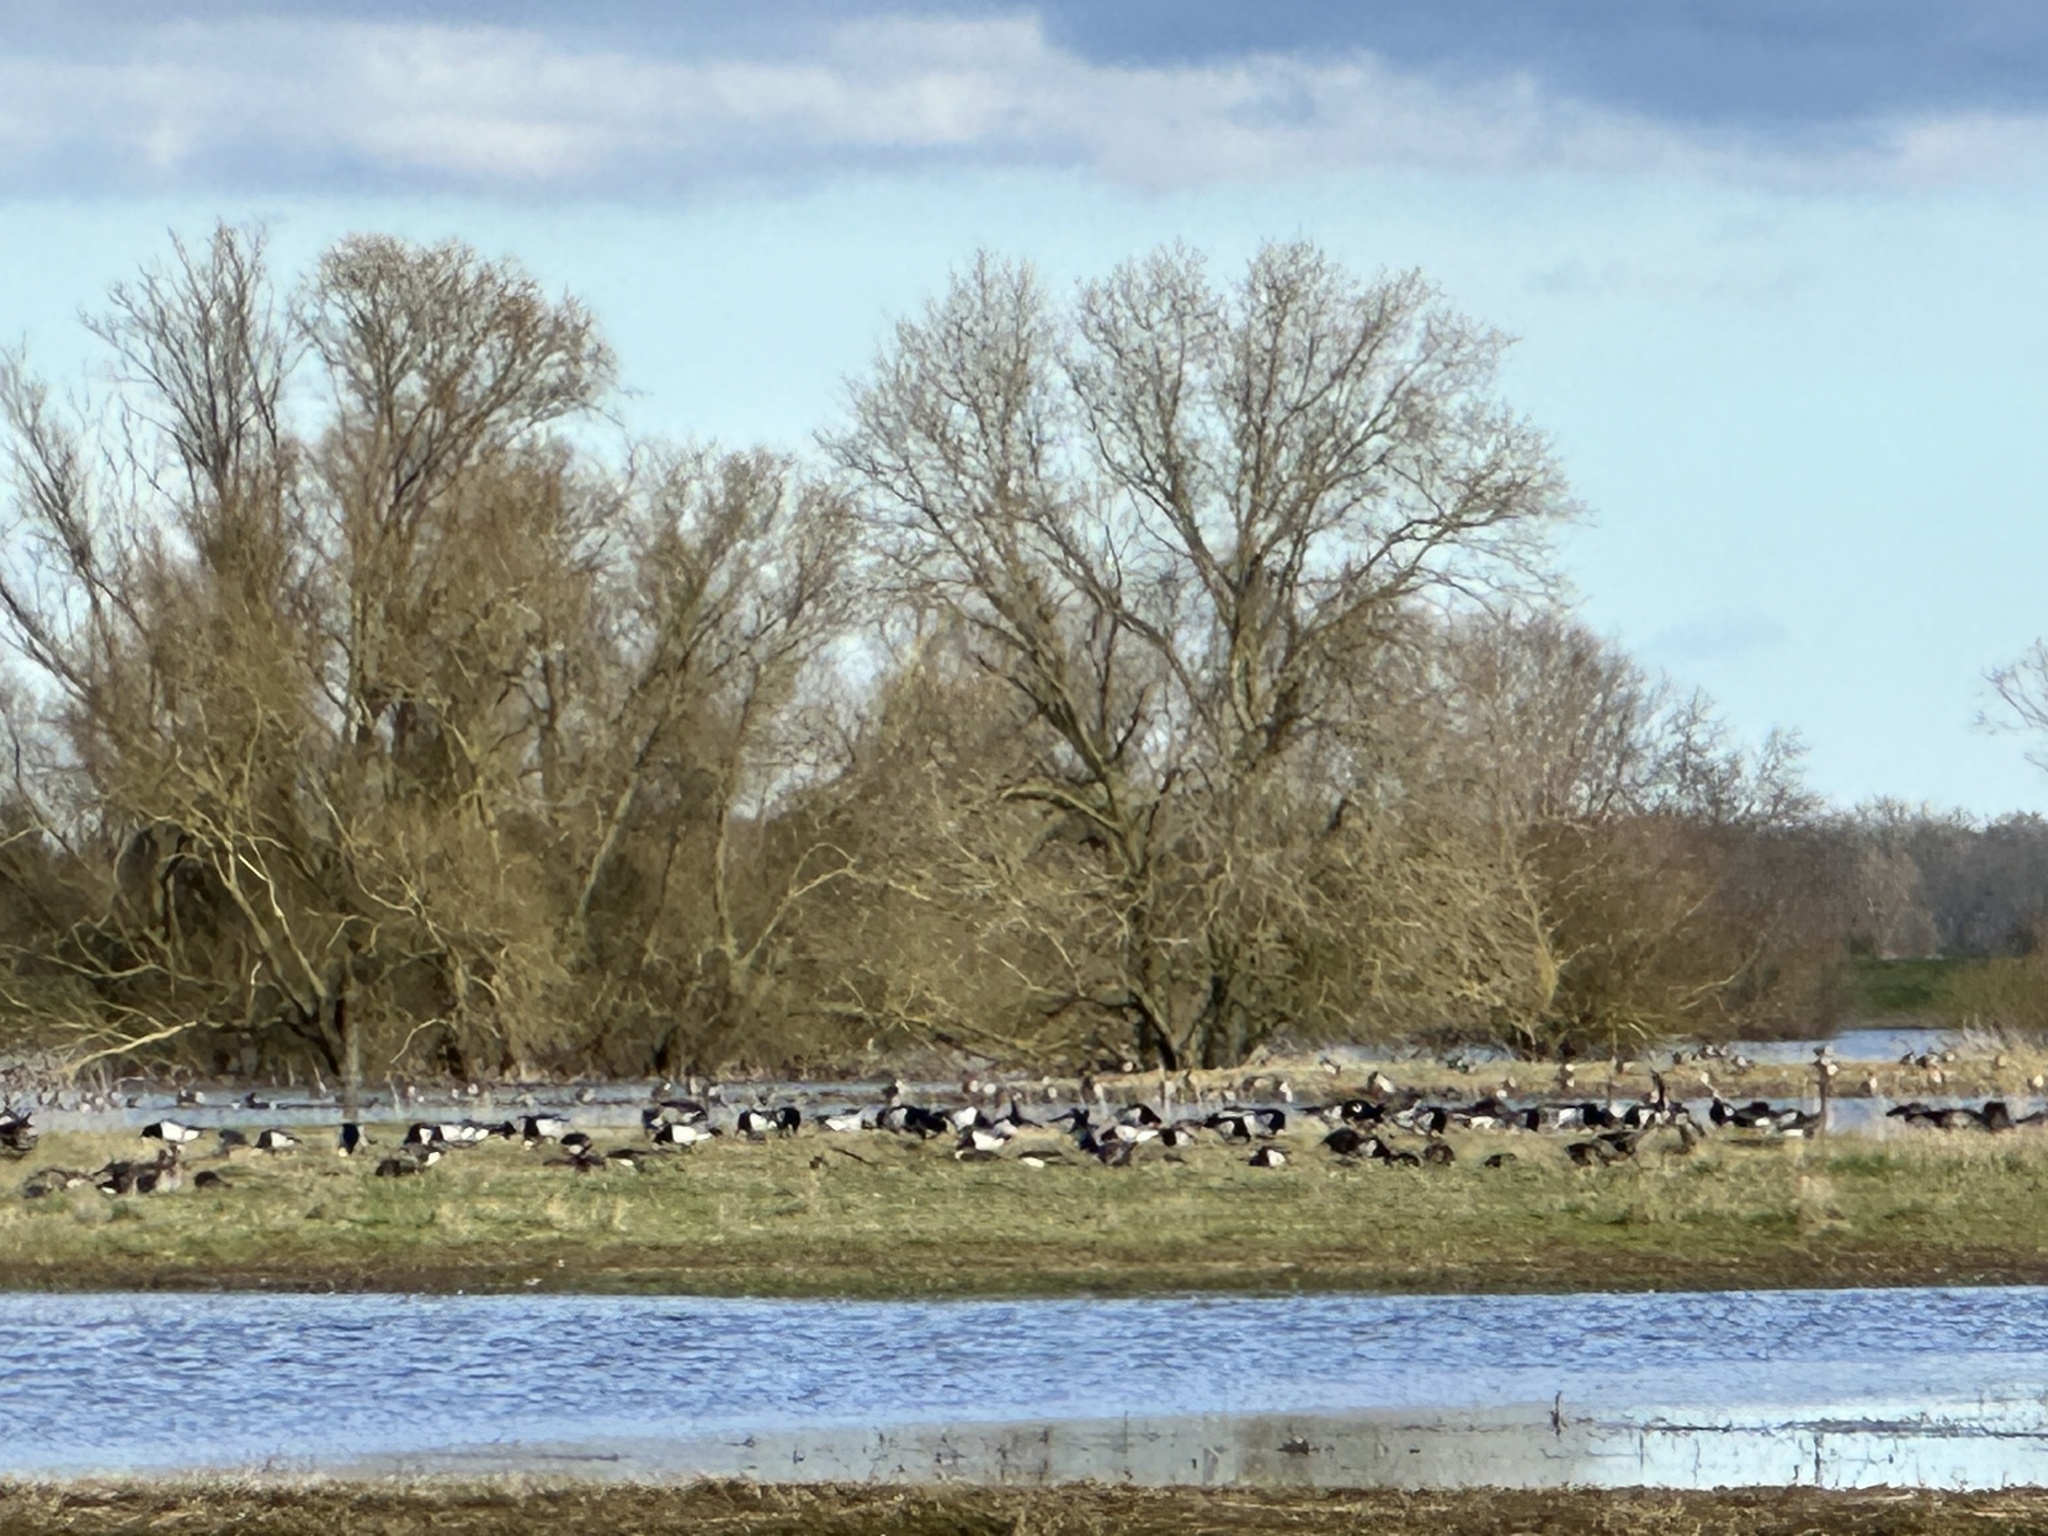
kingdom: Animalia
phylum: Chordata
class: Aves
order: Anseriformes
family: Anatidae
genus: Branta
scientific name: Branta leucopsis
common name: Barnacle goose
